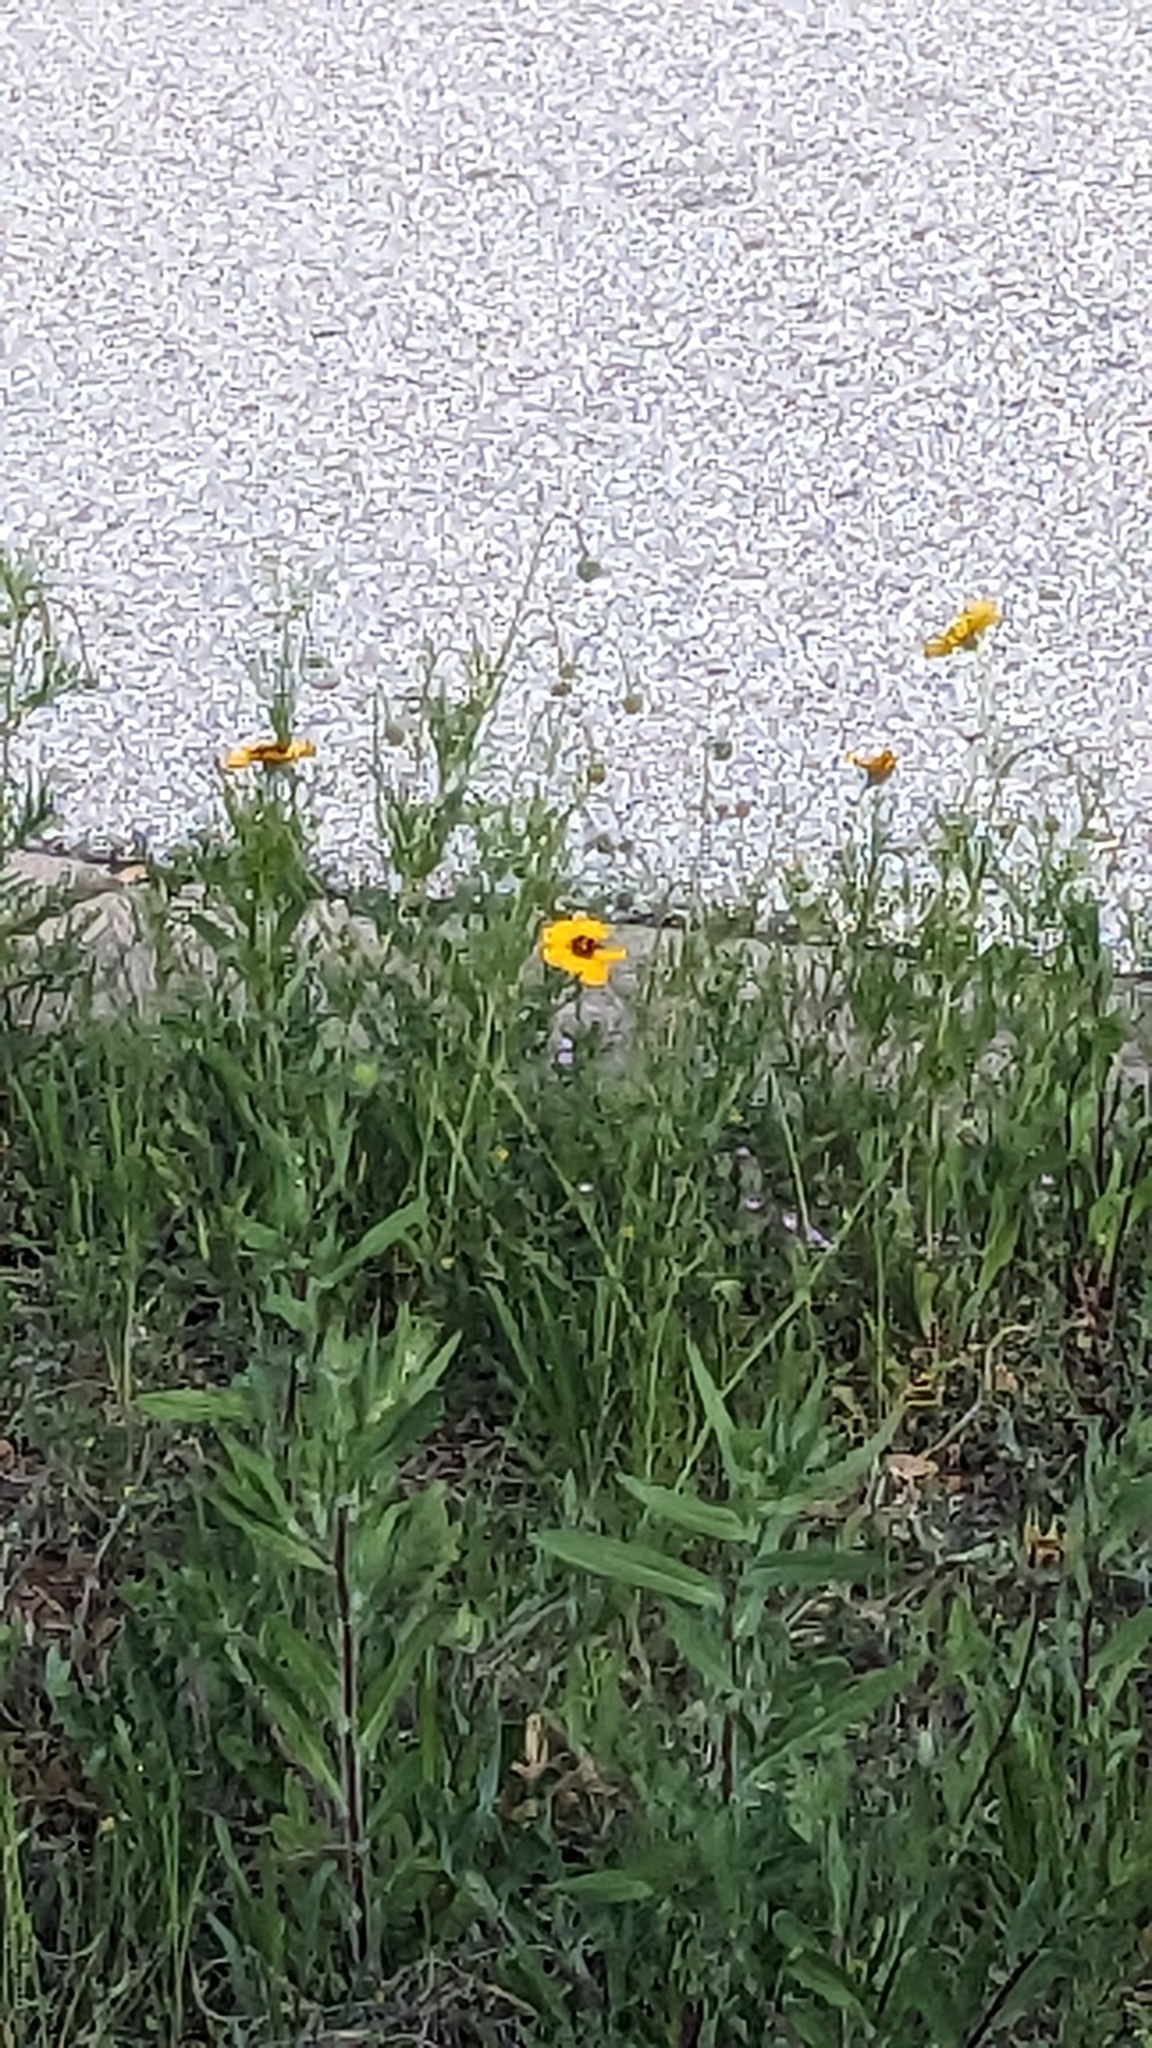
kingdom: Plantae
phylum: Tracheophyta
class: Magnoliopsida
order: Asterales
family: Asteraceae
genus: Thelesperma
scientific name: Thelesperma filifolium
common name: Stiff greenthread
